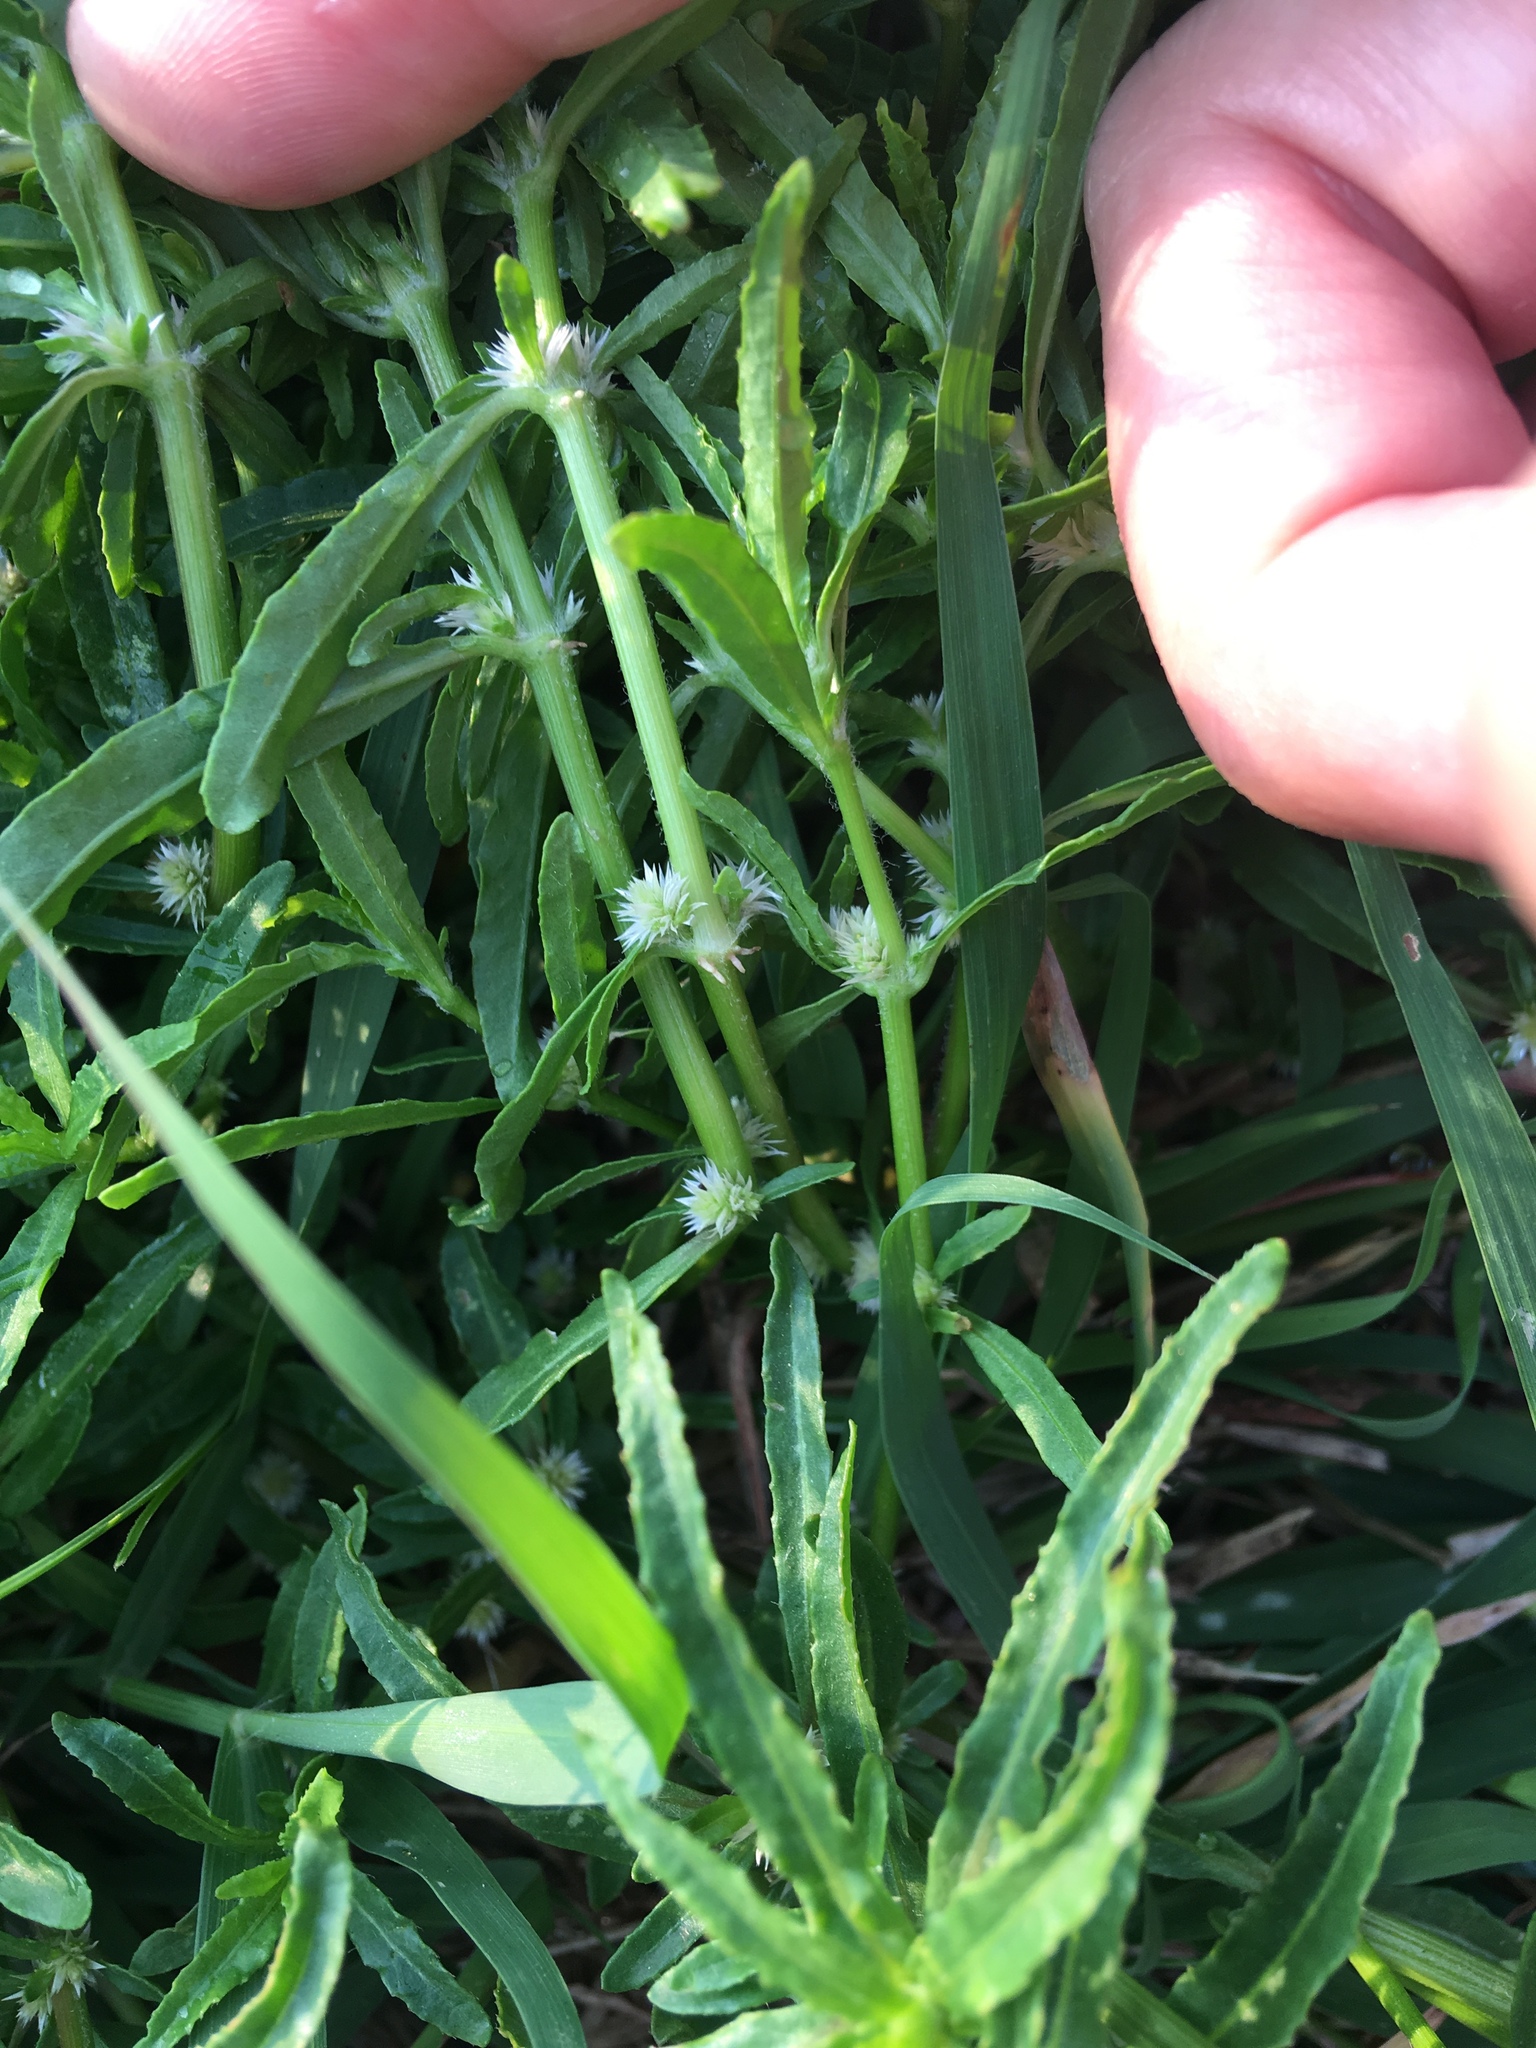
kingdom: Plantae
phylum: Tracheophyta
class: Magnoliopsida
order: Caryophyllales
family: Amaranthaceae
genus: Alternanthera
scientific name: Alternanthera sessilis
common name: Sessile joyweed
